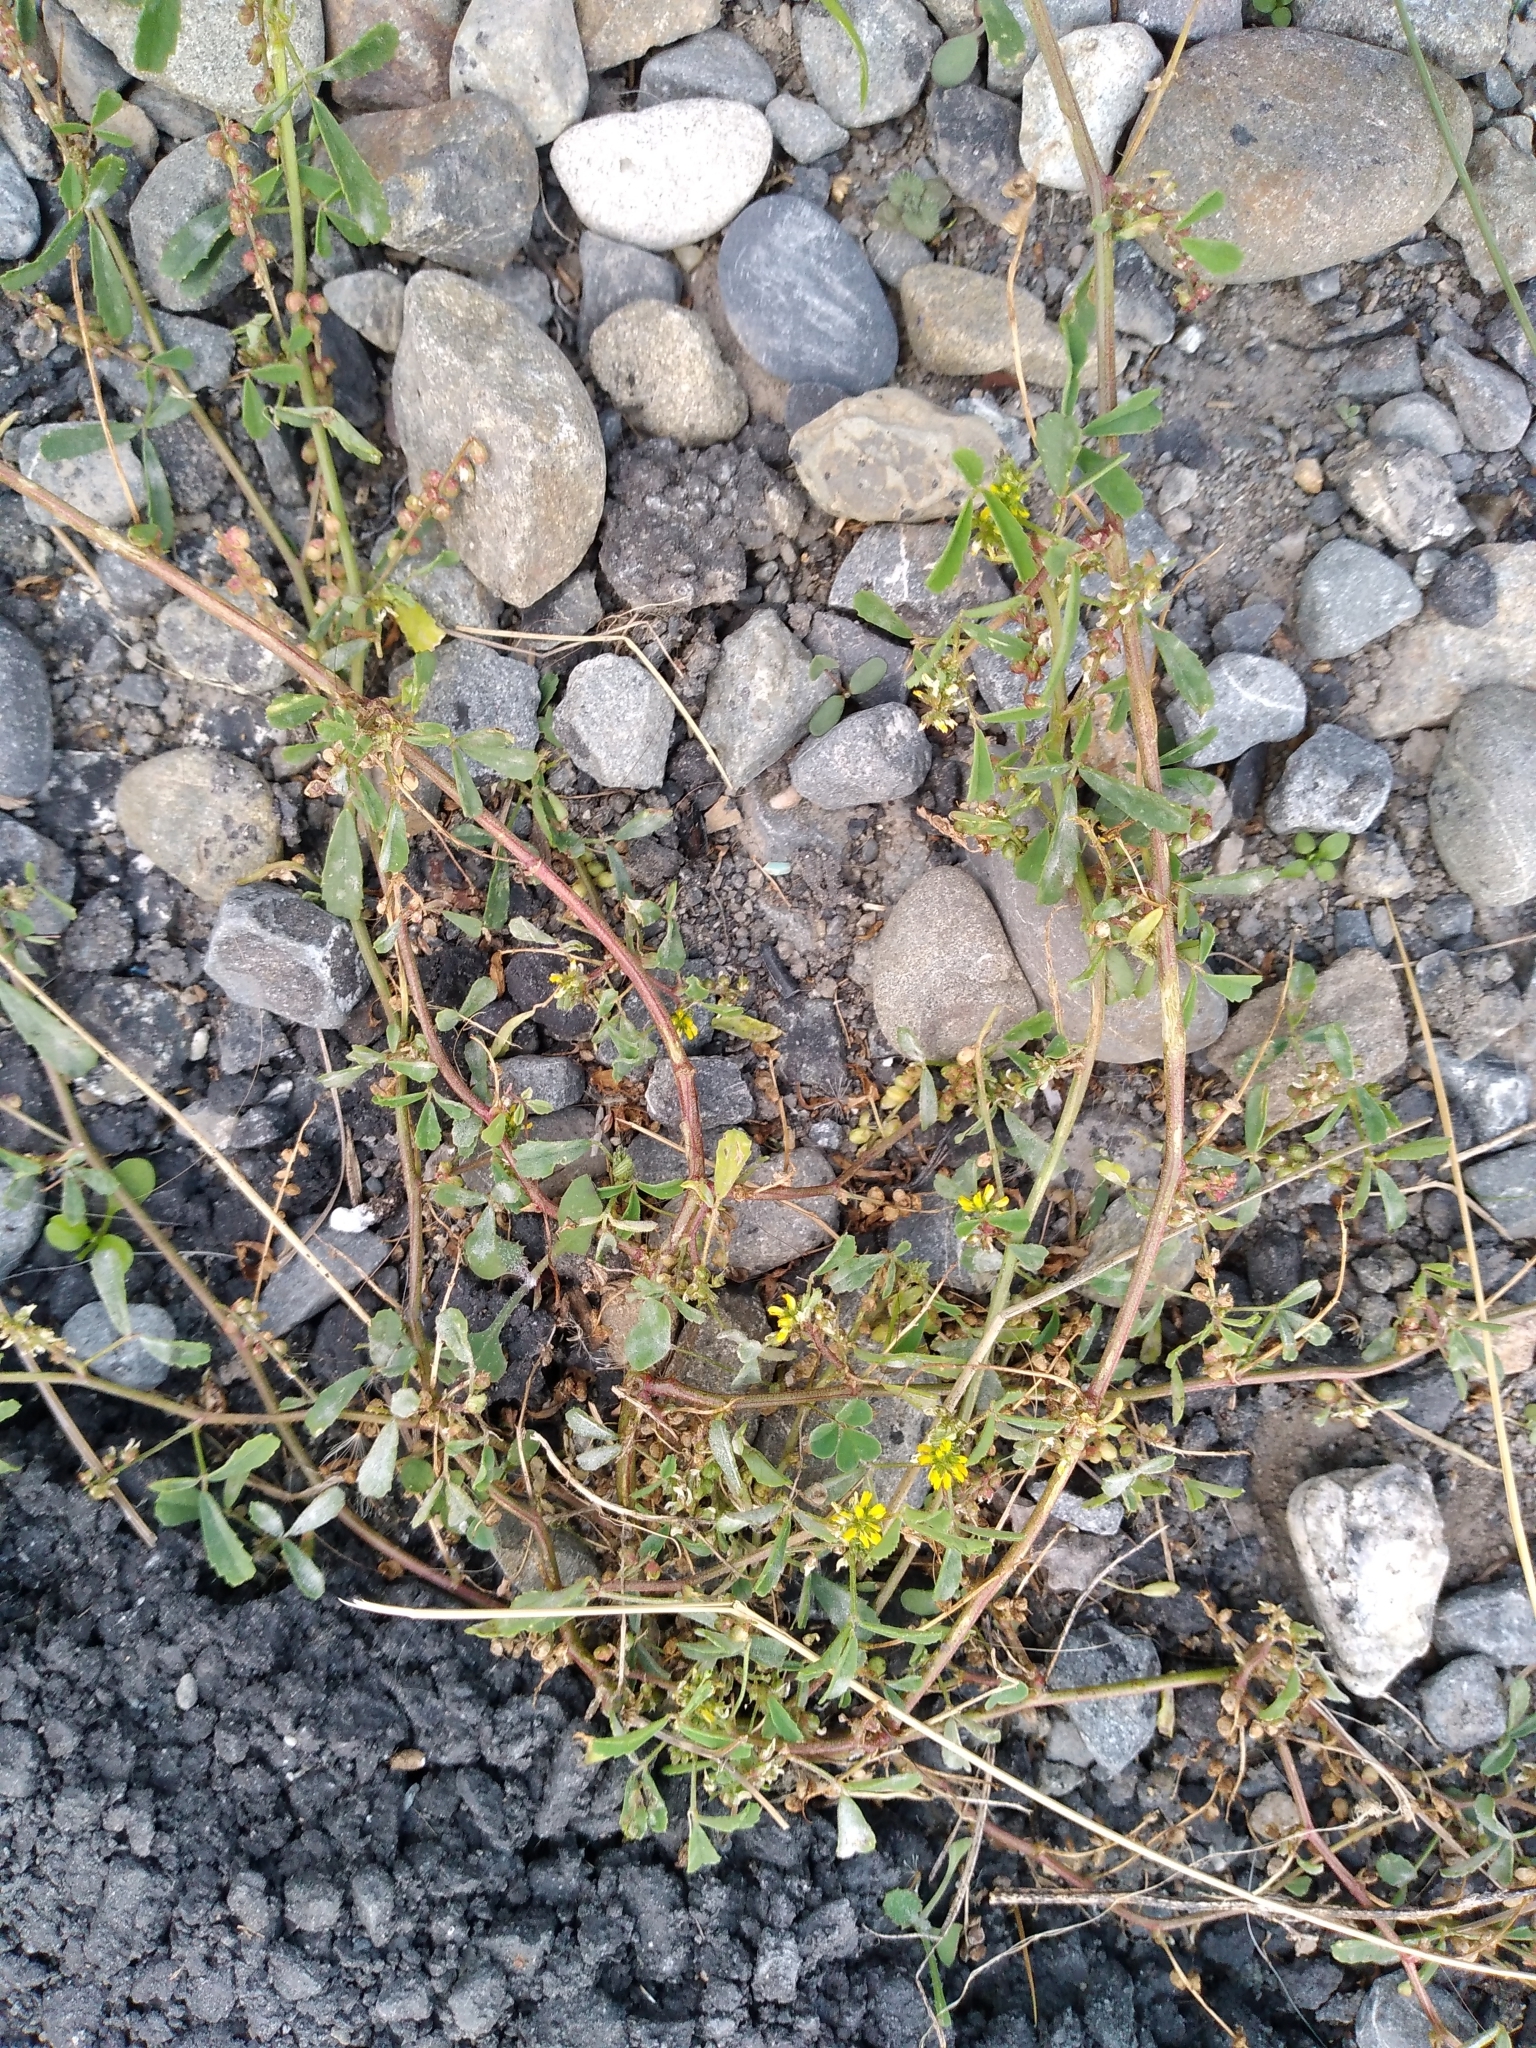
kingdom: Plantae
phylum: Tracheophyta
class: Magnoliopsida
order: Fabales
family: Fabaceae
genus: Melilotus
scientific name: Melilotus indicus
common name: Small melilot
